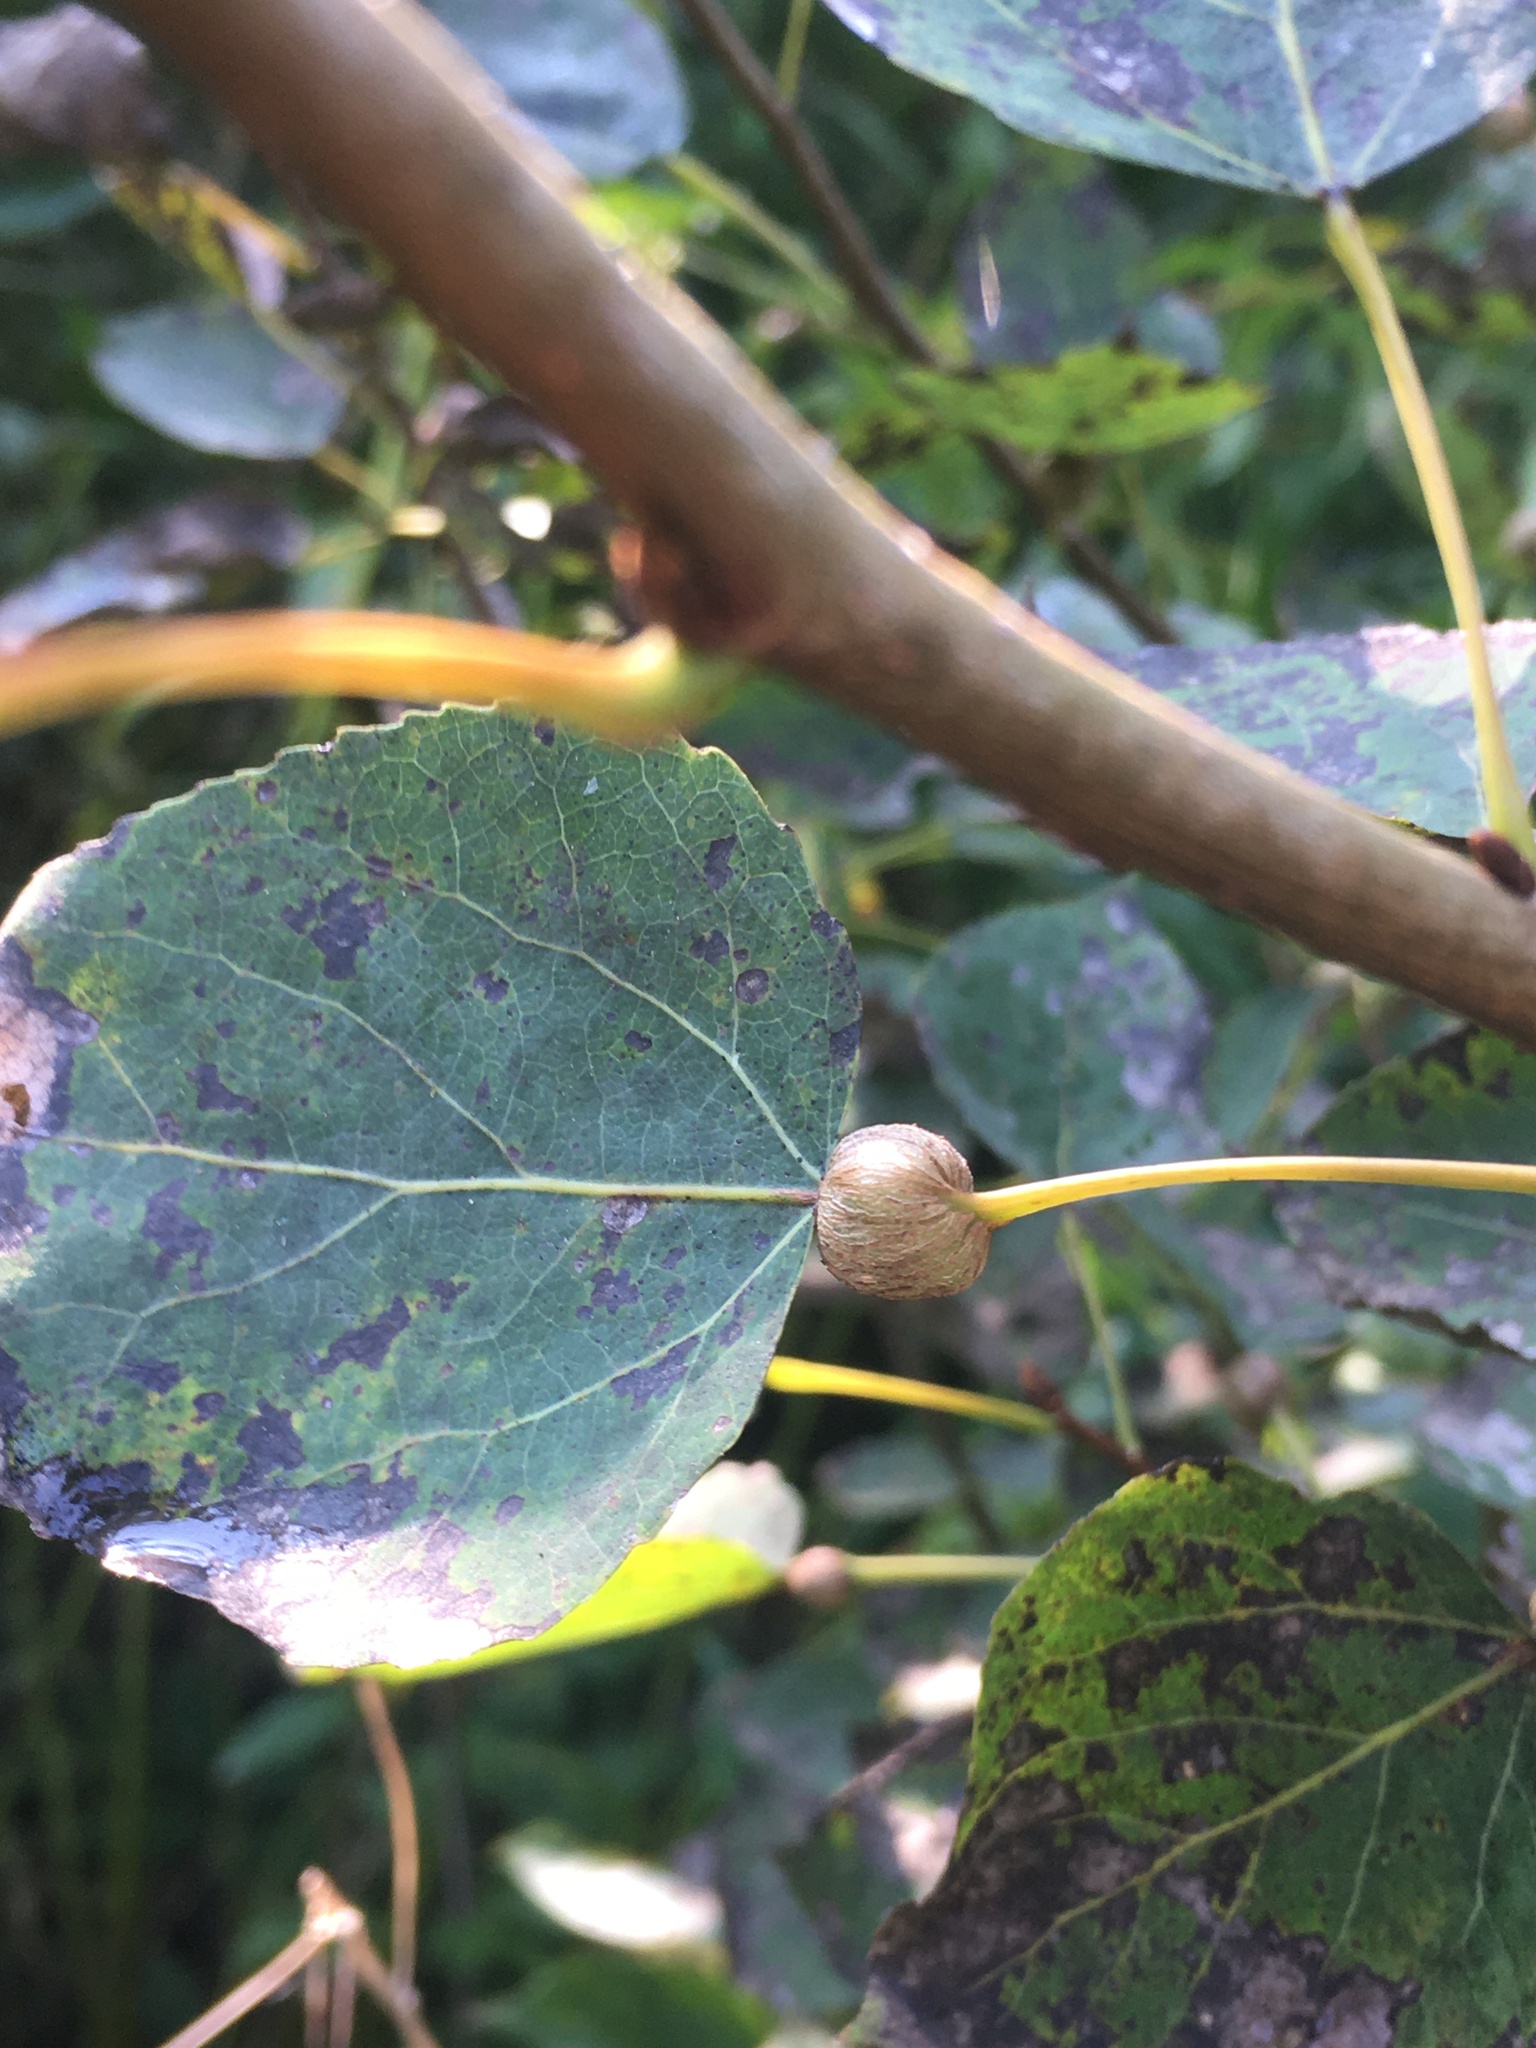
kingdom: Animalia
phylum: Arthropoda
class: Insecta
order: Lepidoptera
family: Nepticulidae
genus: Ectoedemia
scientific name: Ectoedemia populella
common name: Aspen petiole gall moth
